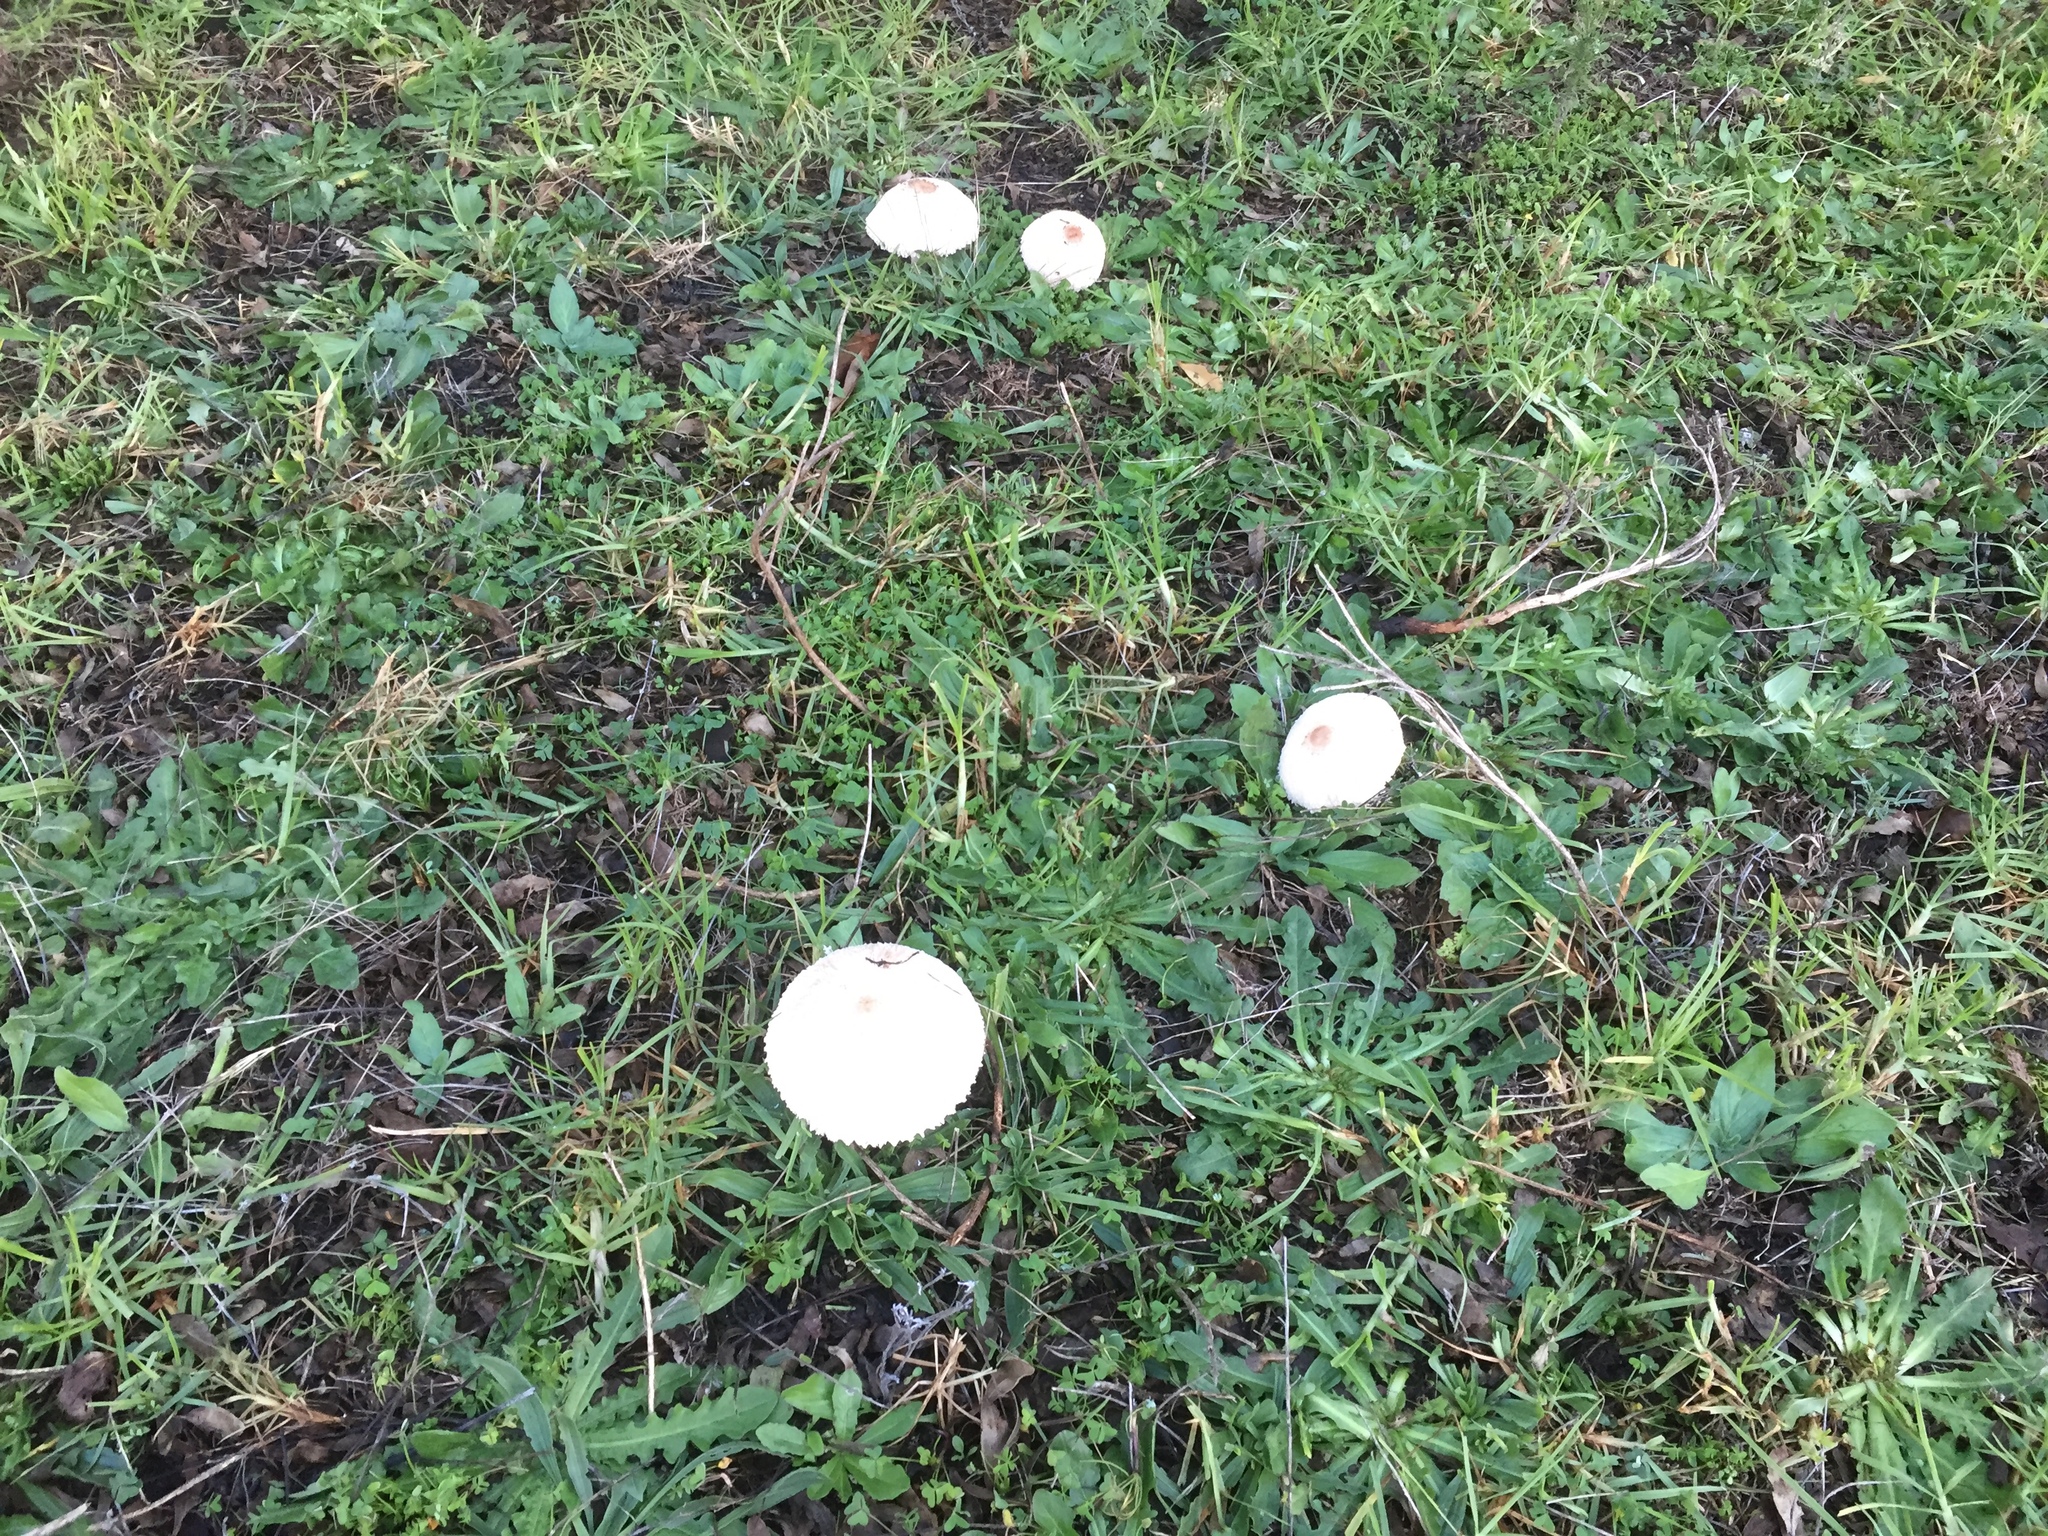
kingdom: Fungi
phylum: Basidiomycota
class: Agaricomycetes
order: Agaricales
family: Agaricaceae
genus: Macrolepiota
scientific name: Macrolepiota zeyheri
